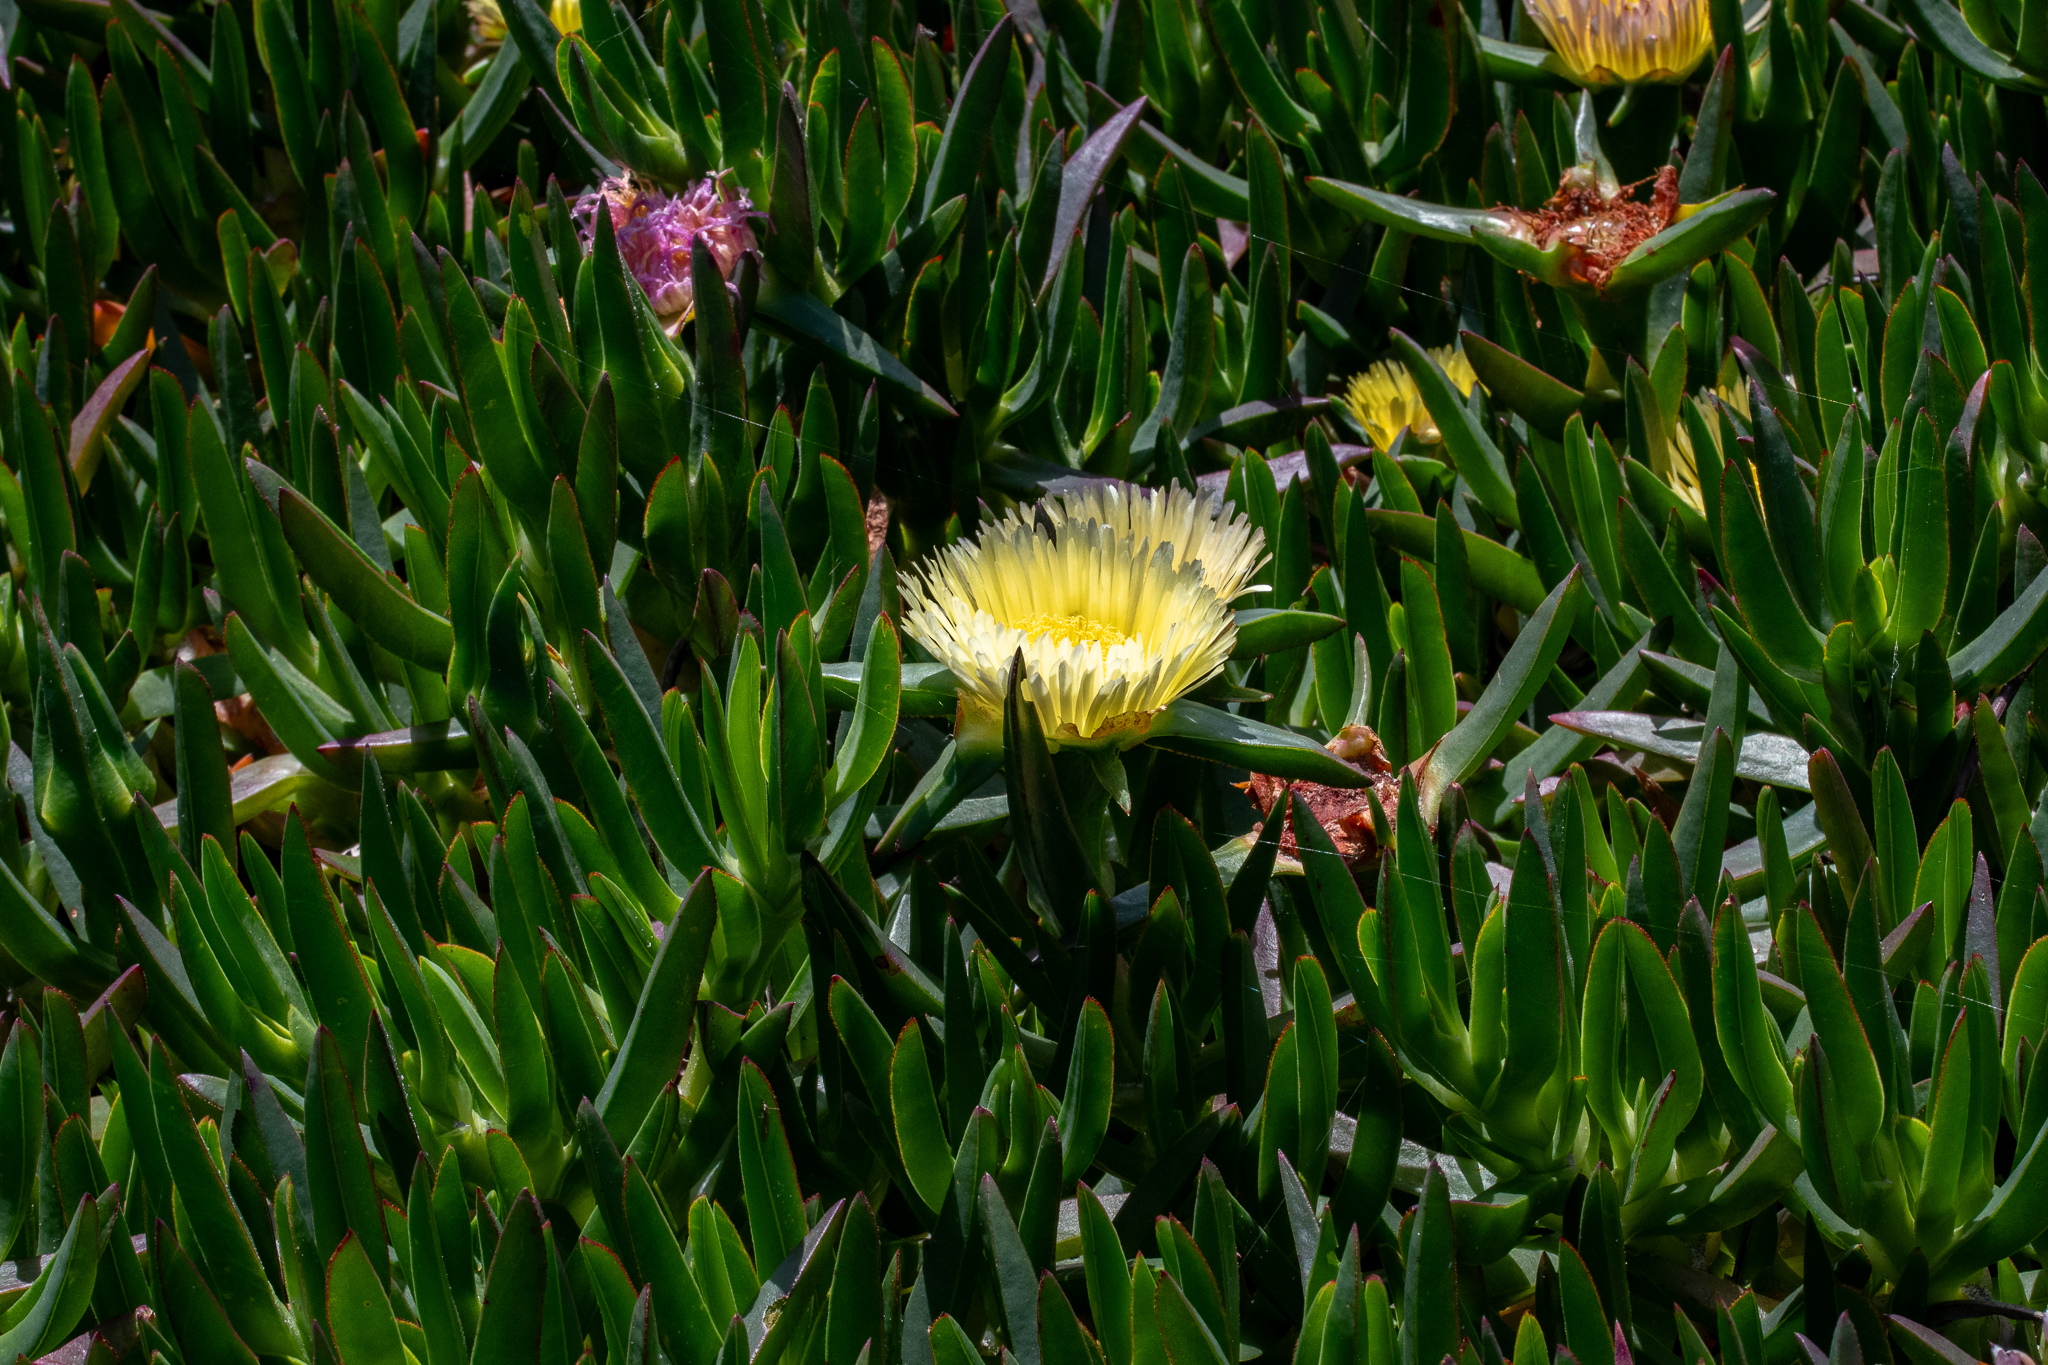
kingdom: Plantae
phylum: Tracheophyta
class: Magnoliopsida
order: Caryophyllales
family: Aizoaceae
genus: Carpobrotus
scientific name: Carpobrotus edulis
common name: Hottentot-fig
